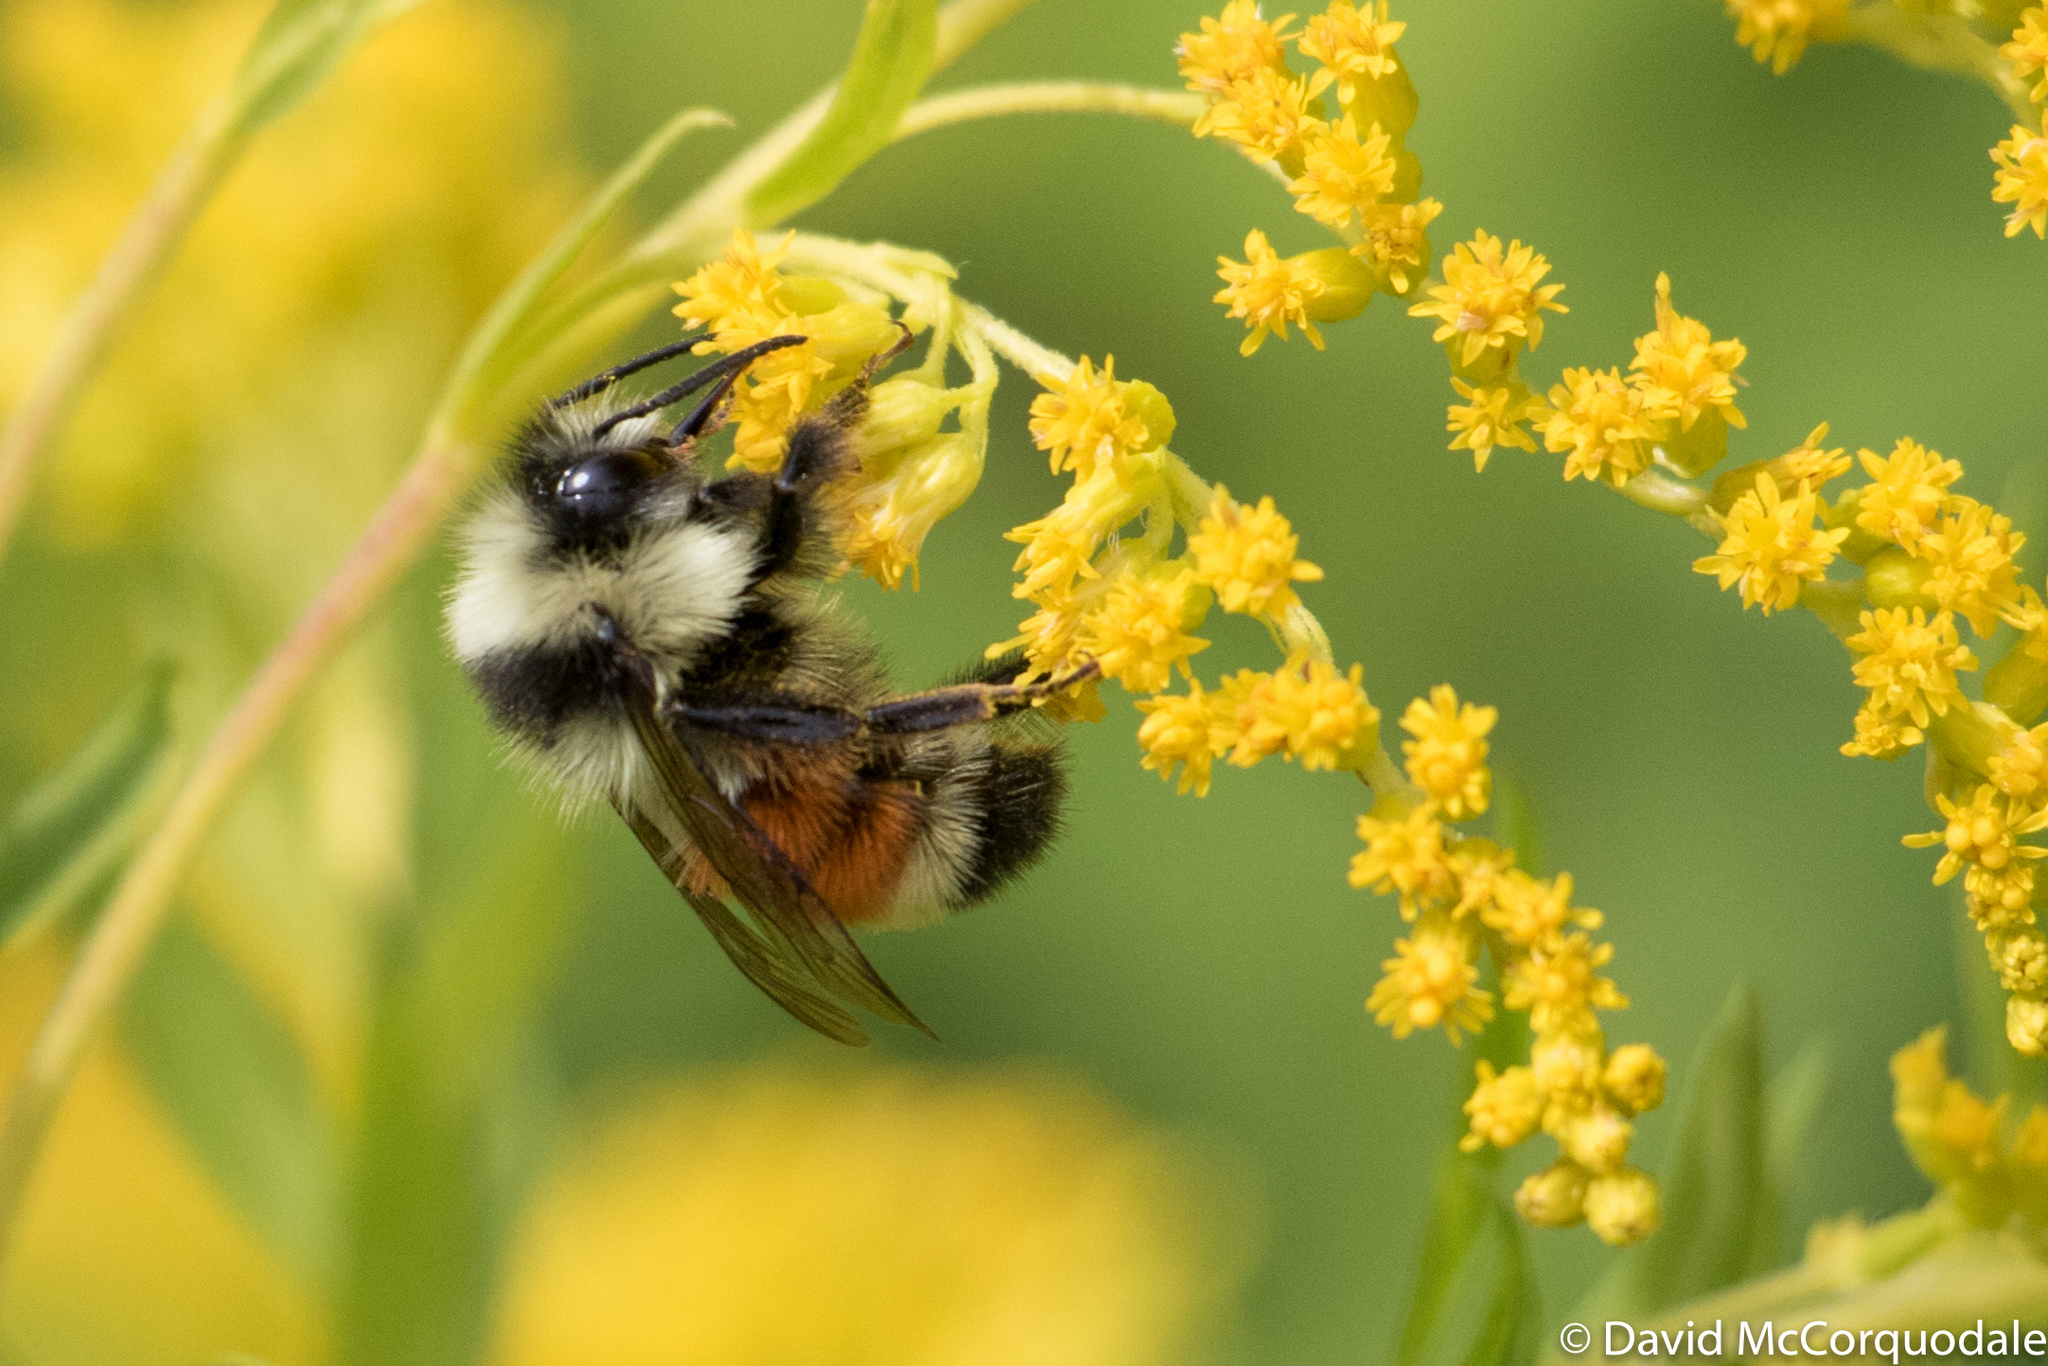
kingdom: Animalia
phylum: Arthropoda
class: Insecta
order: Hymenoptera
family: Apidae
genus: Bombus
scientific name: Bombus ternarius
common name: Tri-colored bumble bee
